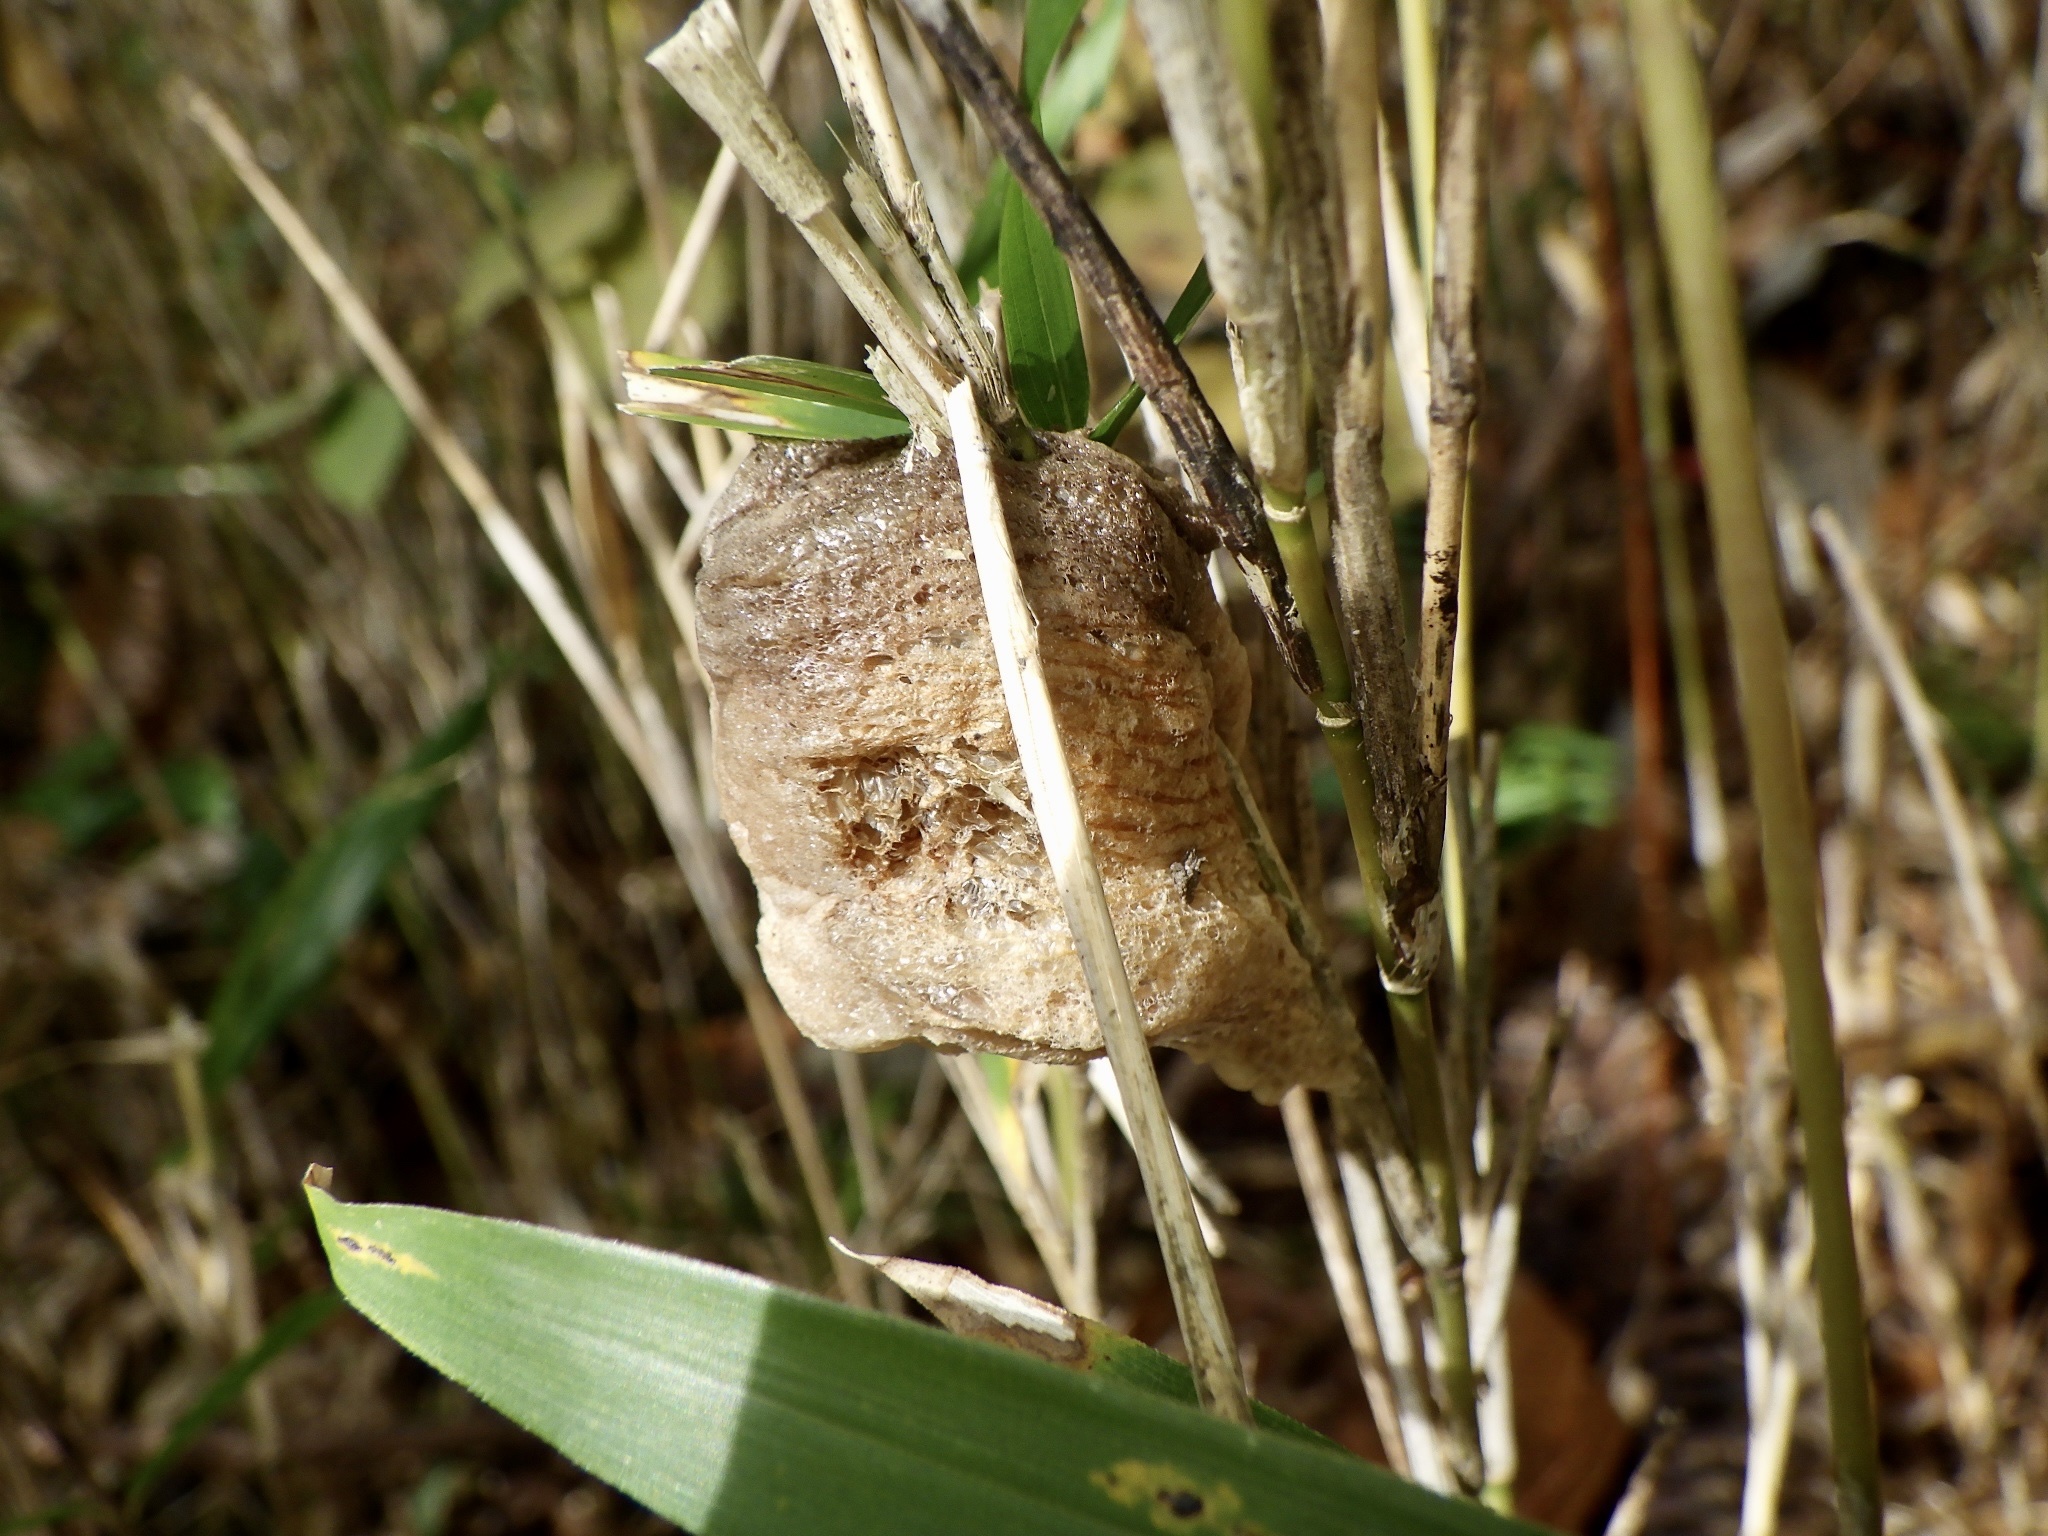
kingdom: Animalia
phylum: Arthropoda
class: Insecta
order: Mantodea
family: Mantidae
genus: Tenodera
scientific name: Tenodera sinensis
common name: Chinese mantis
